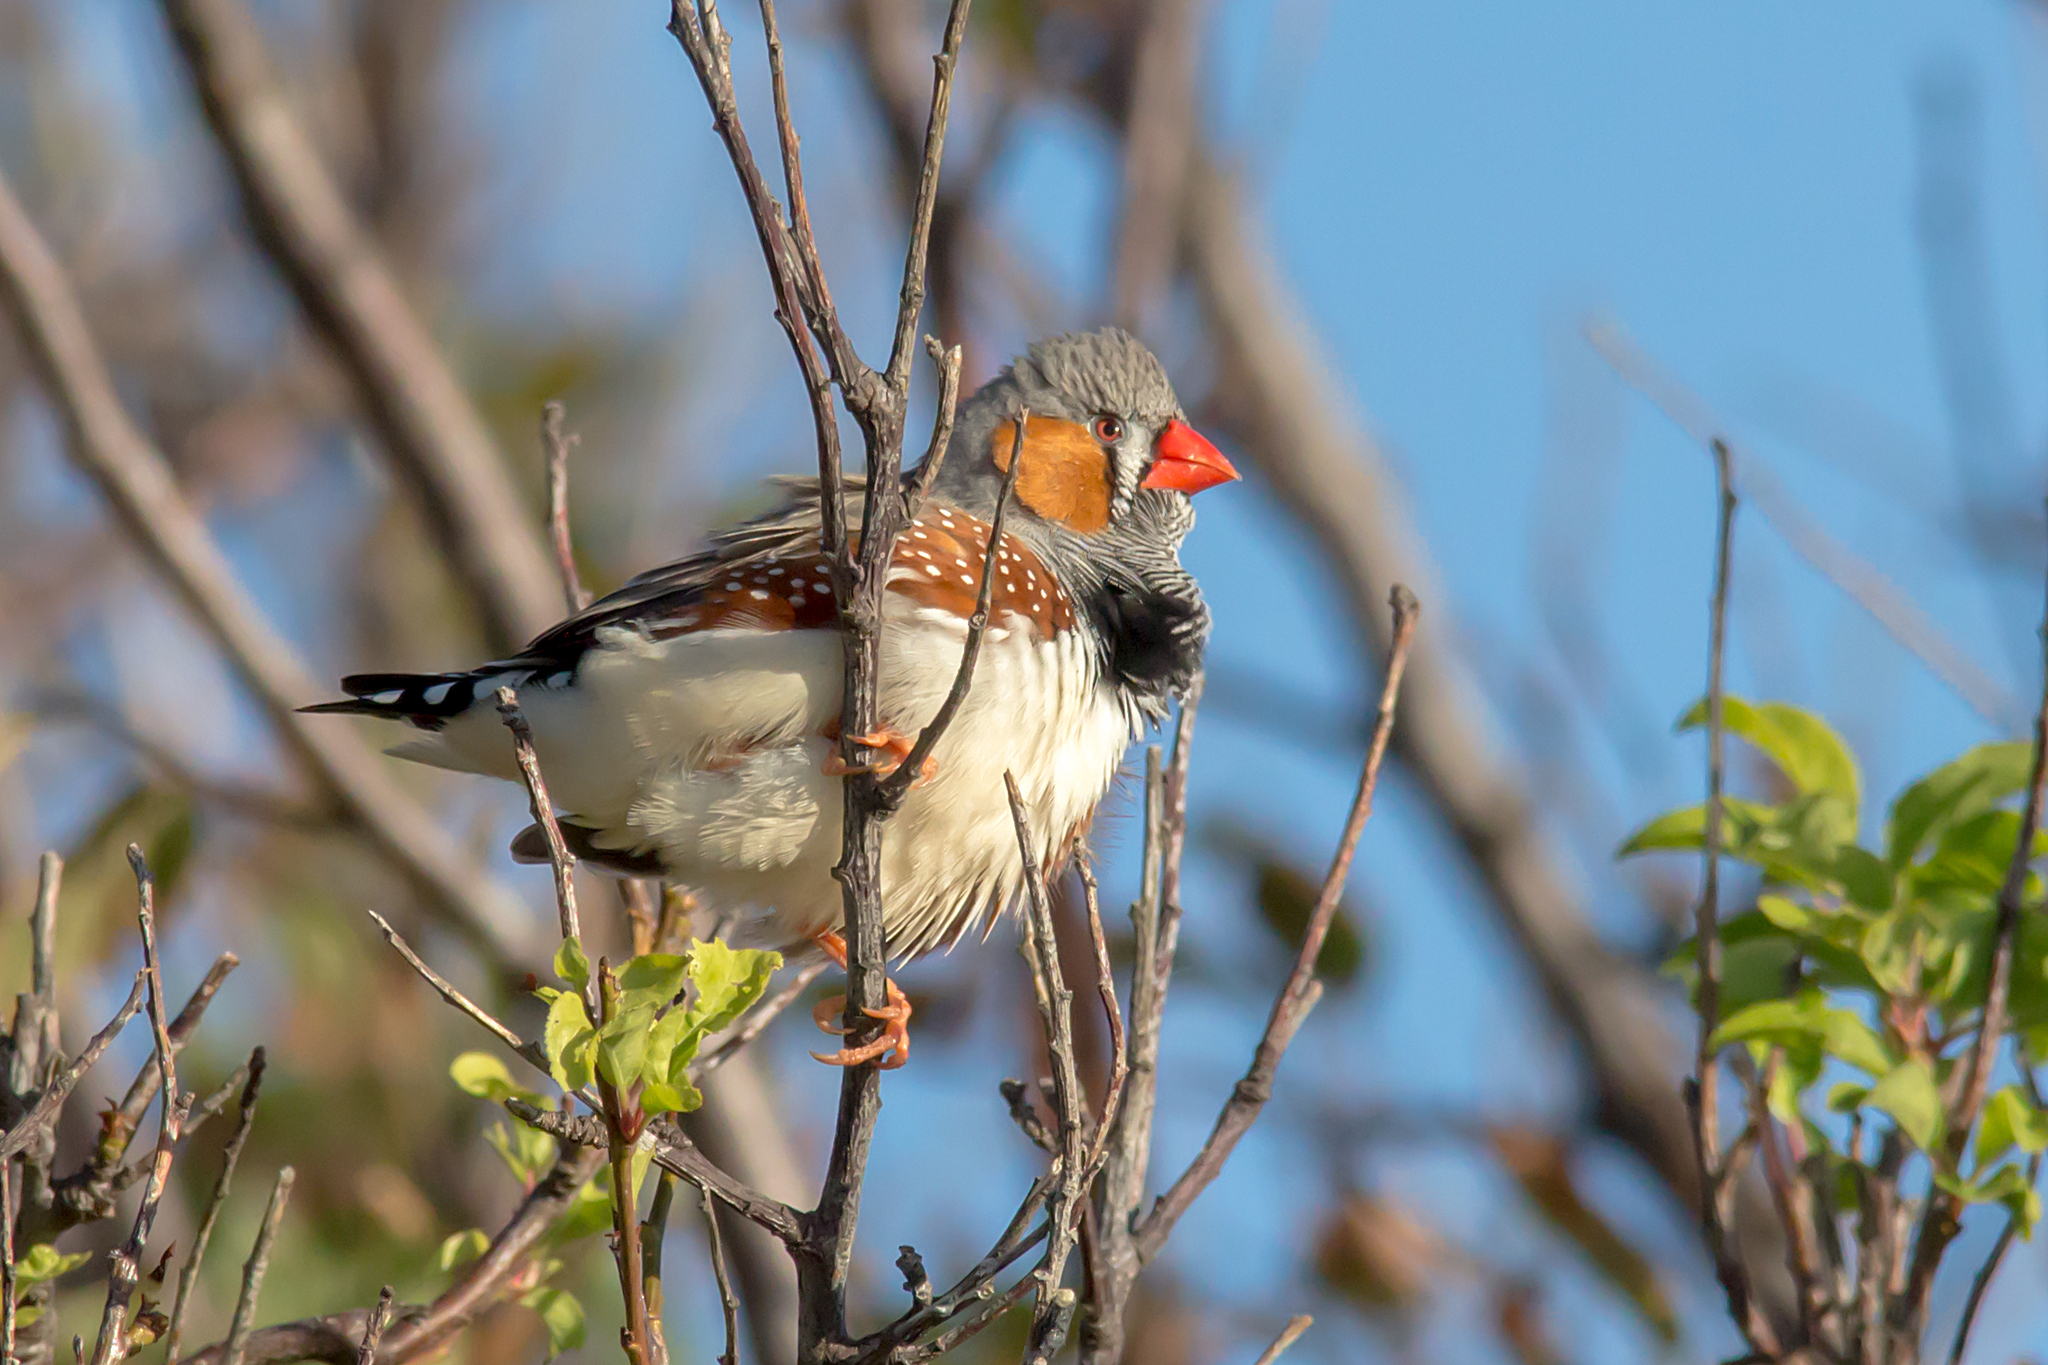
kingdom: Animalia
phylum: Chordata
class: Aves
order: Passeriformes
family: Estrildidae
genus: Taeniopygia
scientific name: Taeniopygia guttata
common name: Zebra finch
